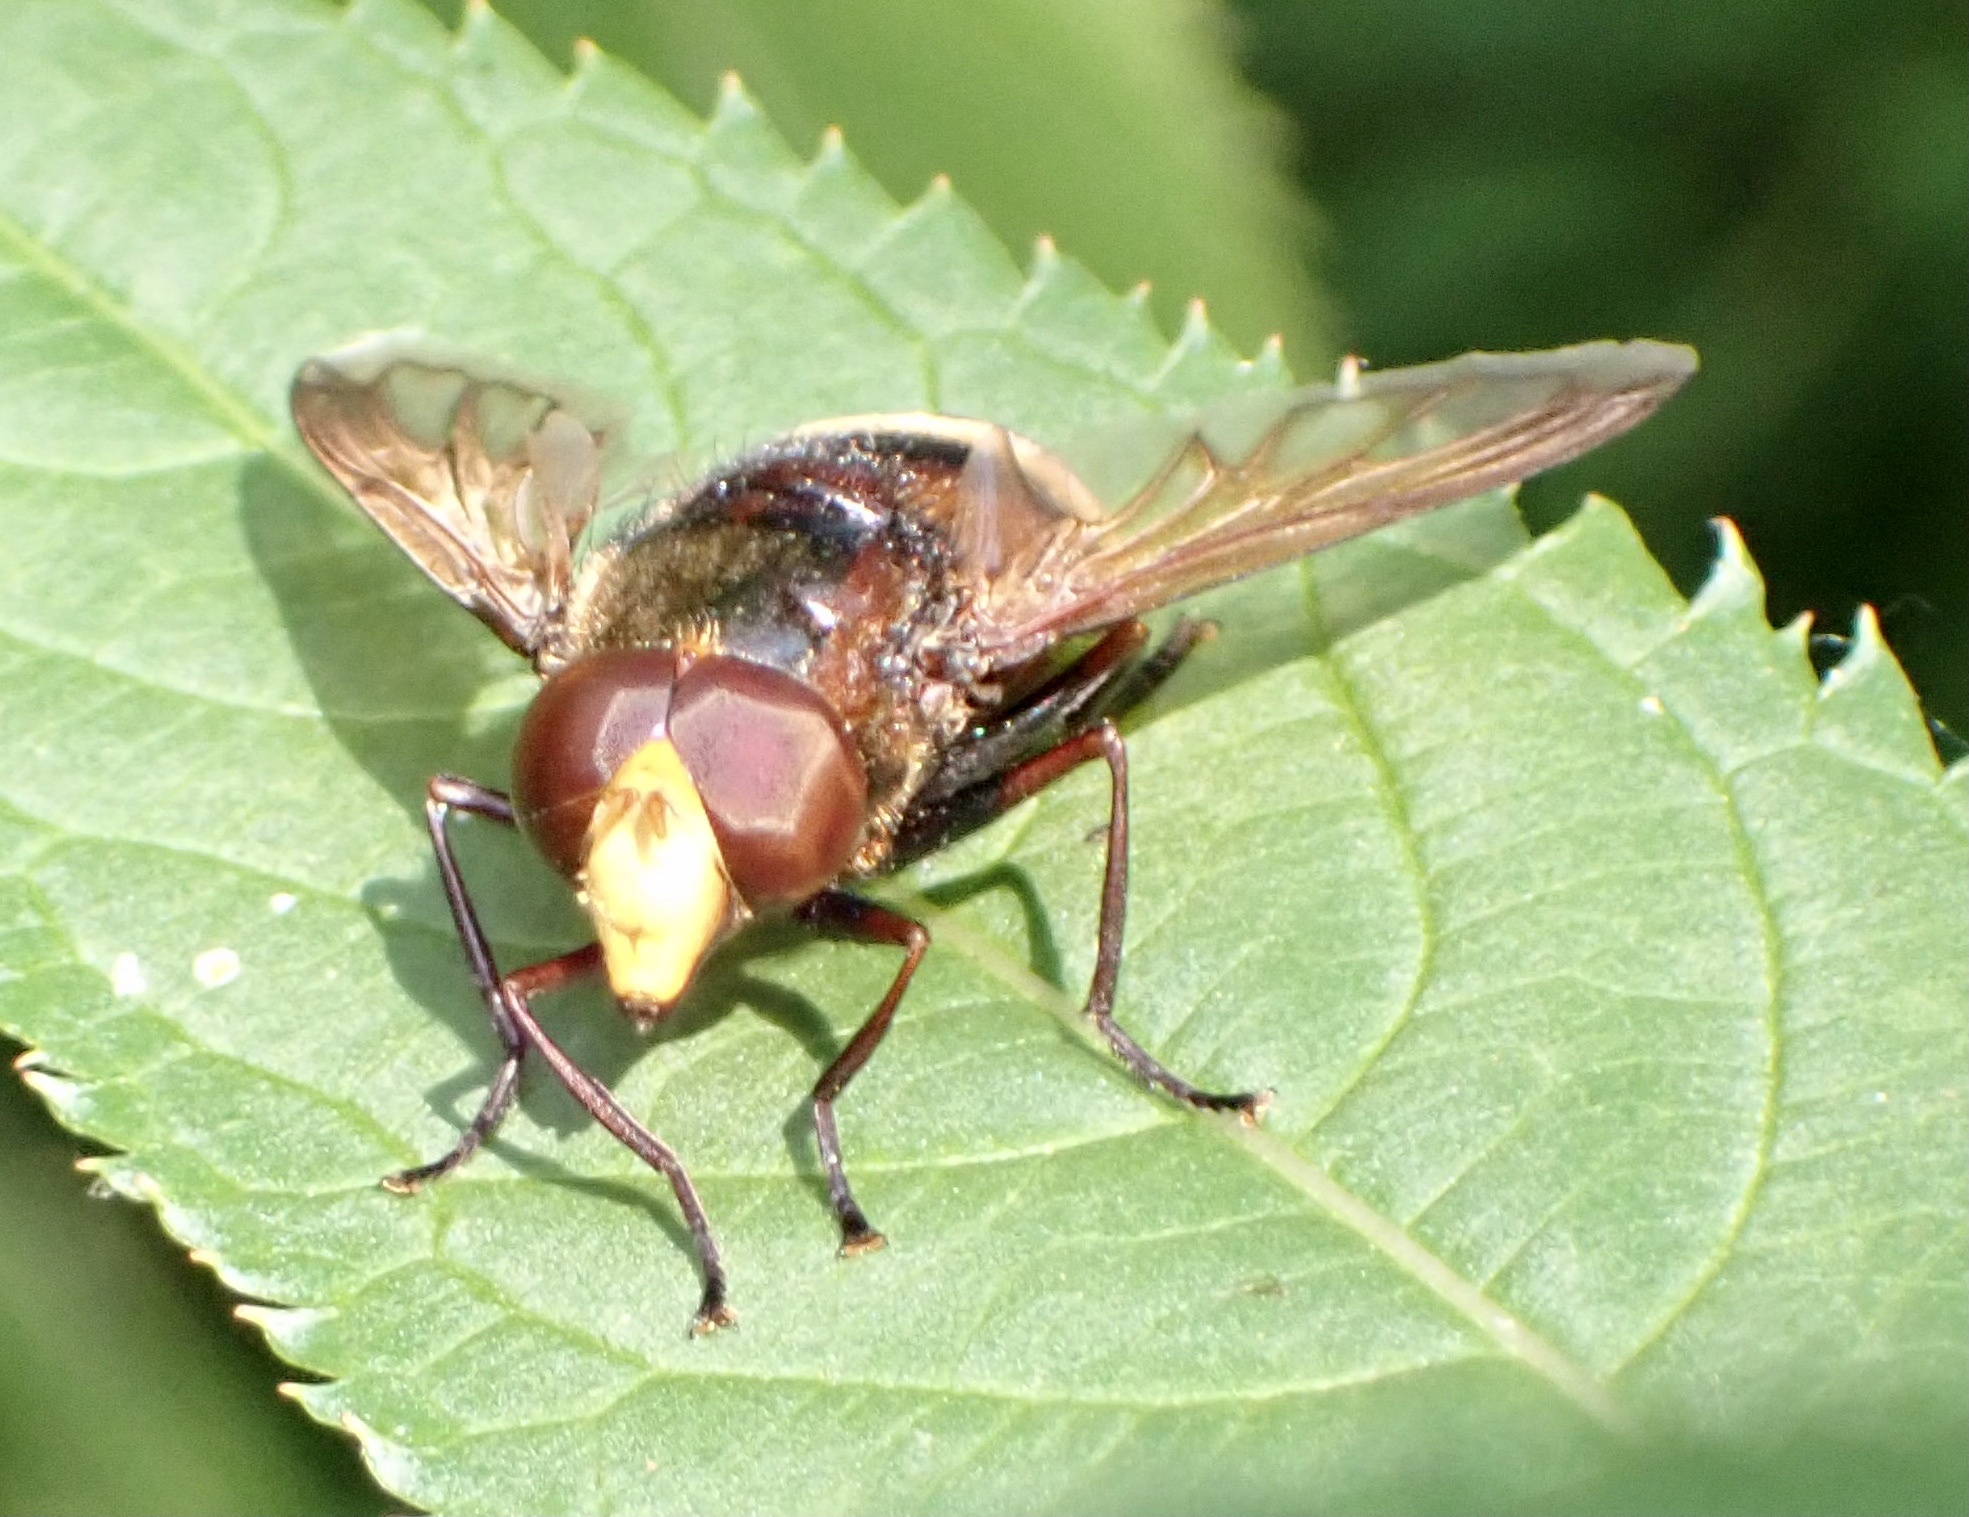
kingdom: Animalia
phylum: Arthropoda
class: Insecta
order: Diptera
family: Syrphidae
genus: Volucella
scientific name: Volucella zonaria
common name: Hornet hoverfly
